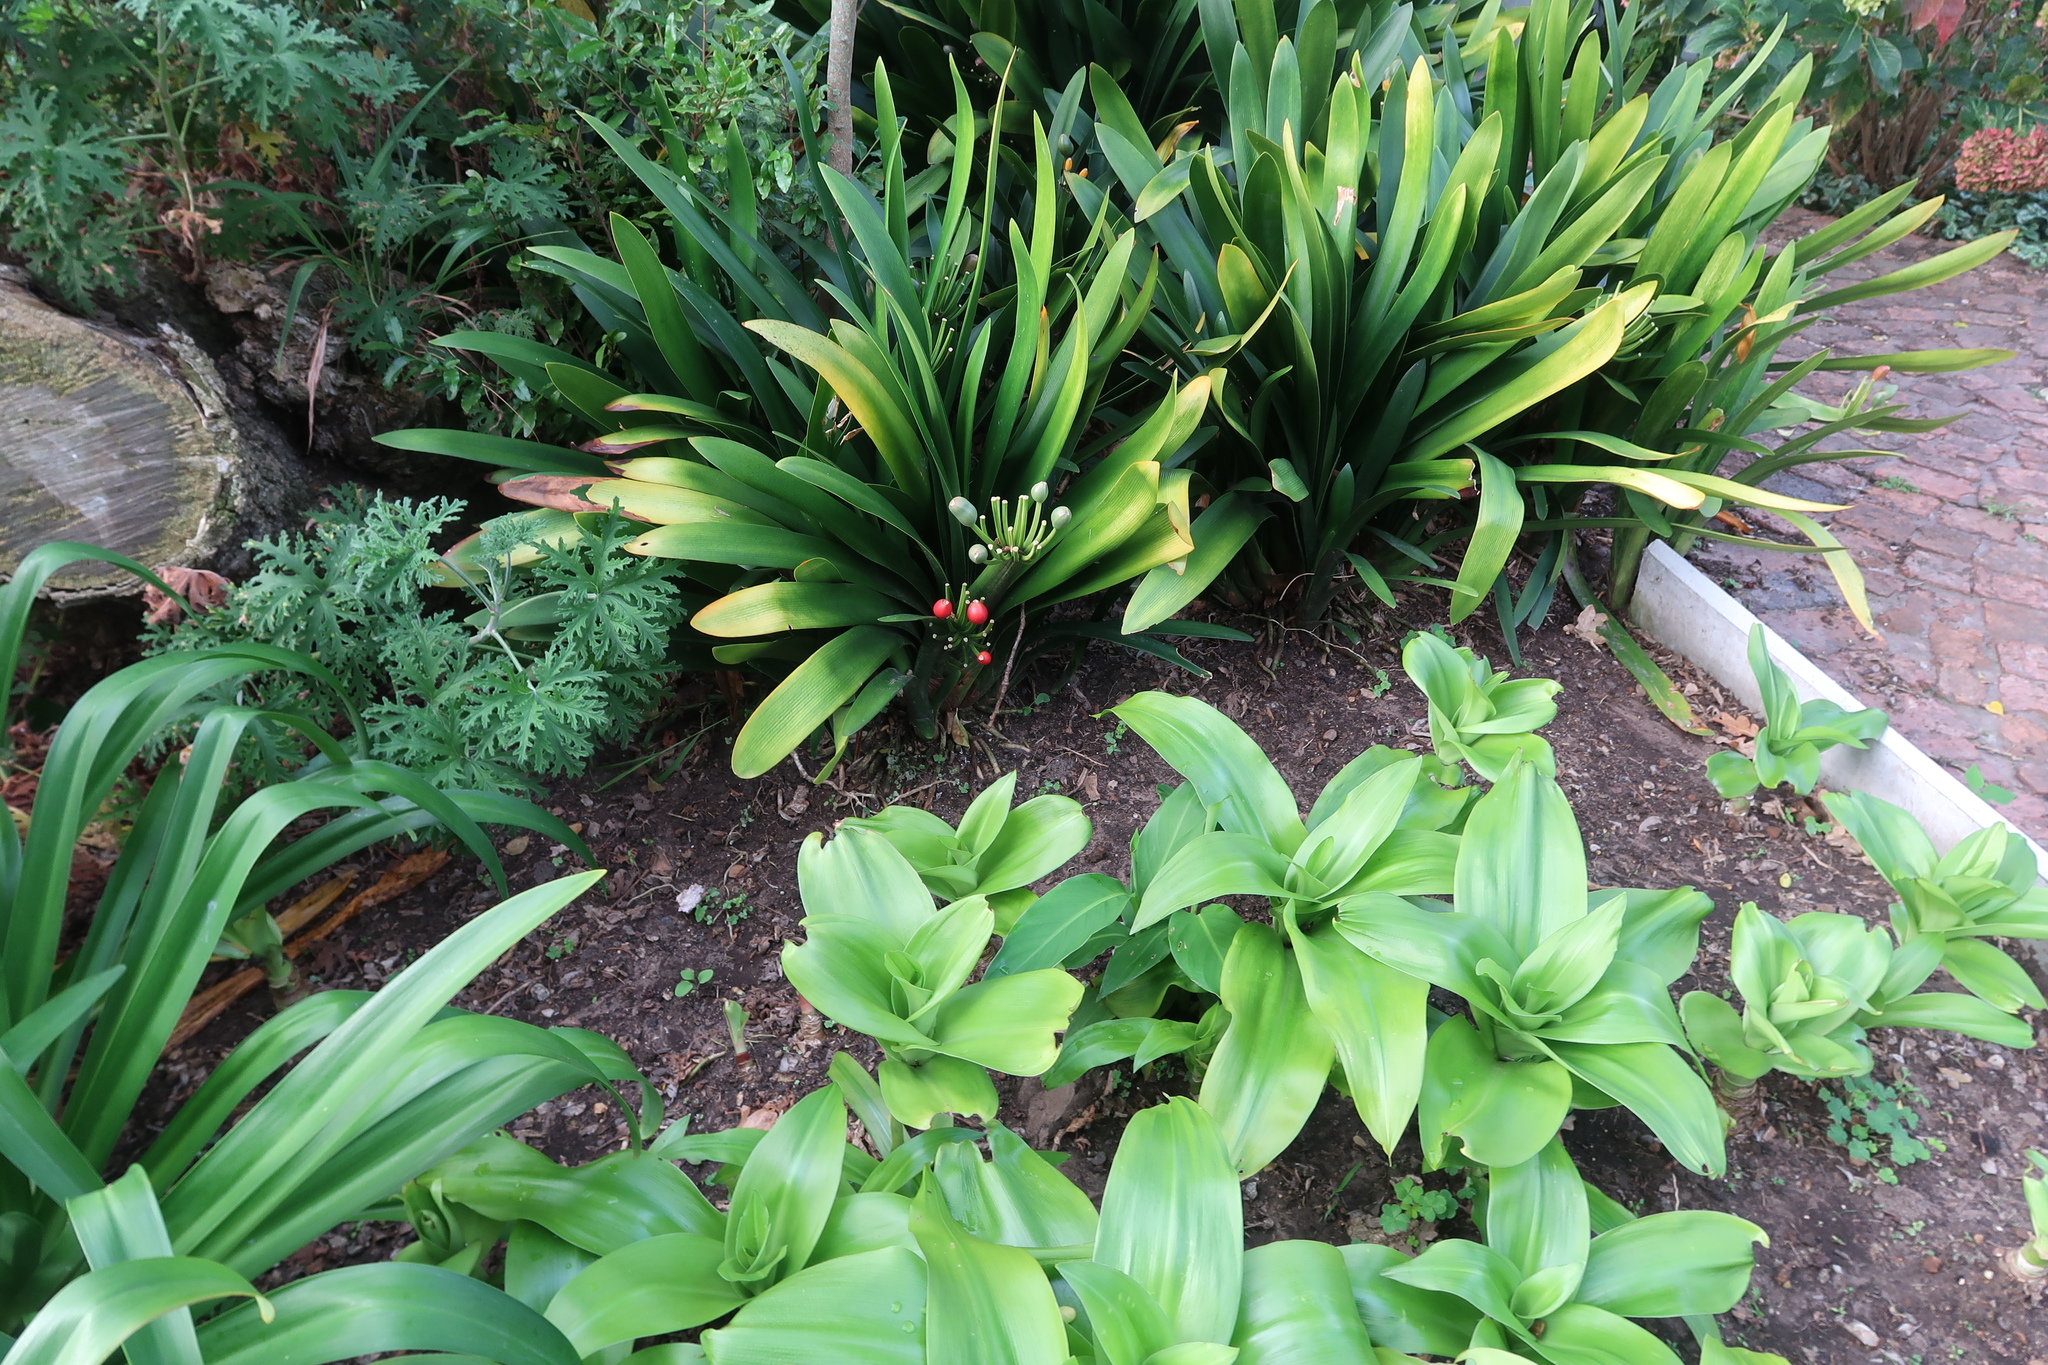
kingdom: Plantae
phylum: Tracheophyta
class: Liliopsida
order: Asparagales
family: Amaryllidaceae
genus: Clivia
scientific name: Clivia miniata
